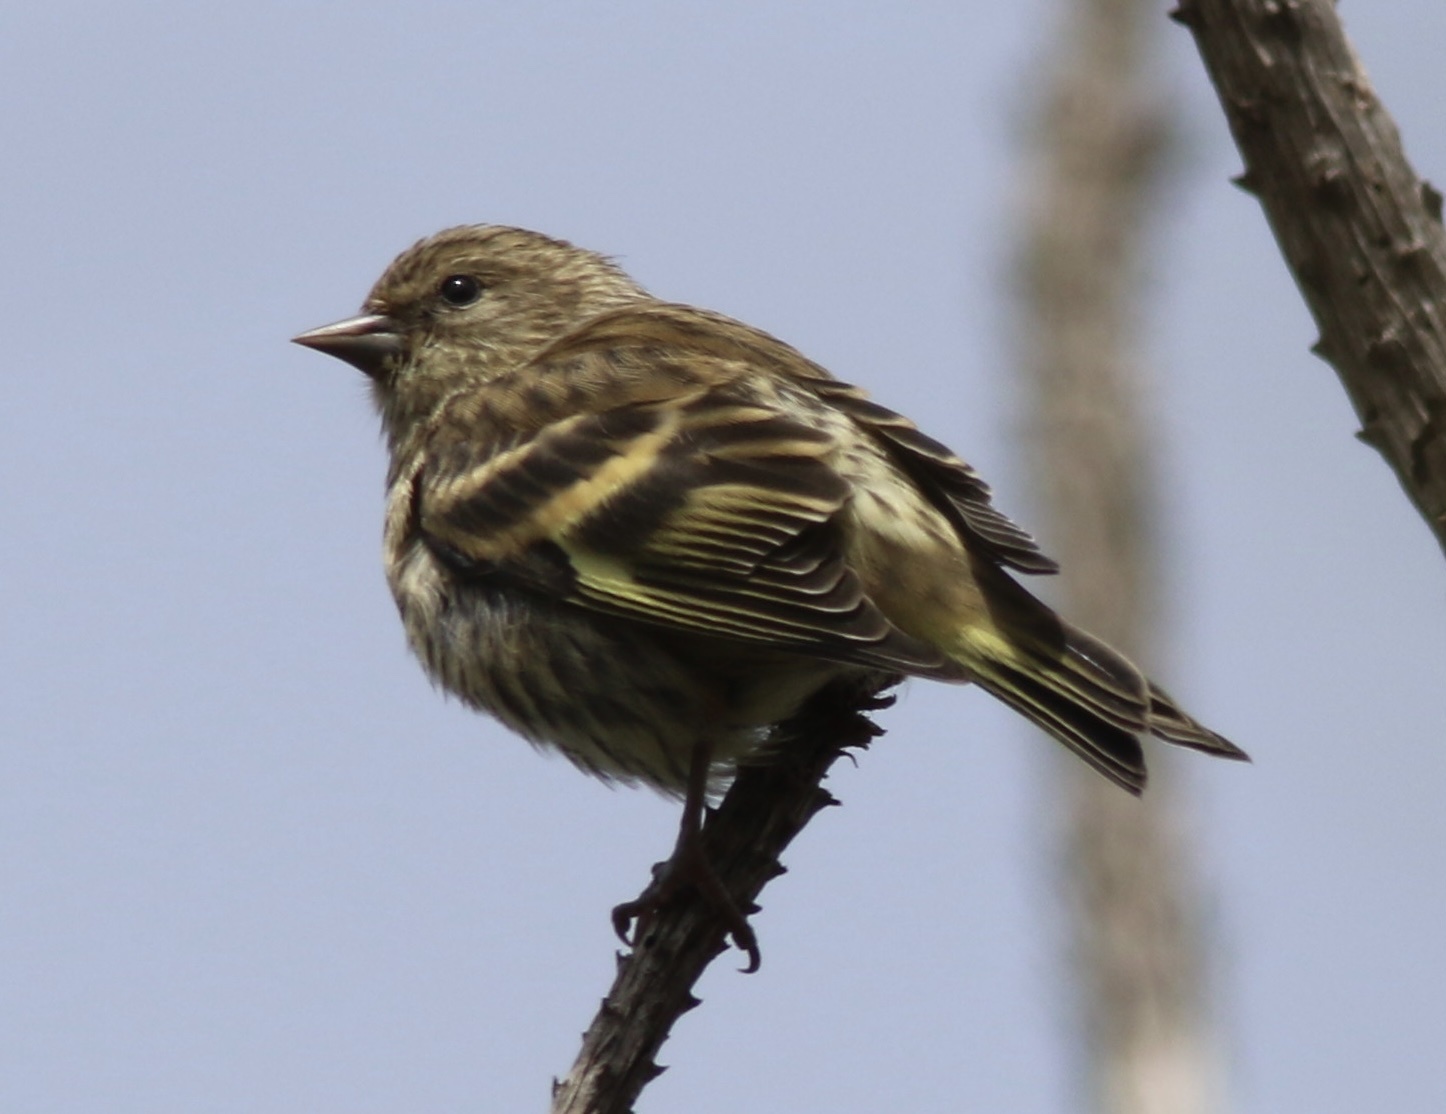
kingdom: Animalia
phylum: Chordata
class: Aves
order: Passeriformes
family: Fringillidae
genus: Spinus
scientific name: Spinus pinus
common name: Pine siskin
